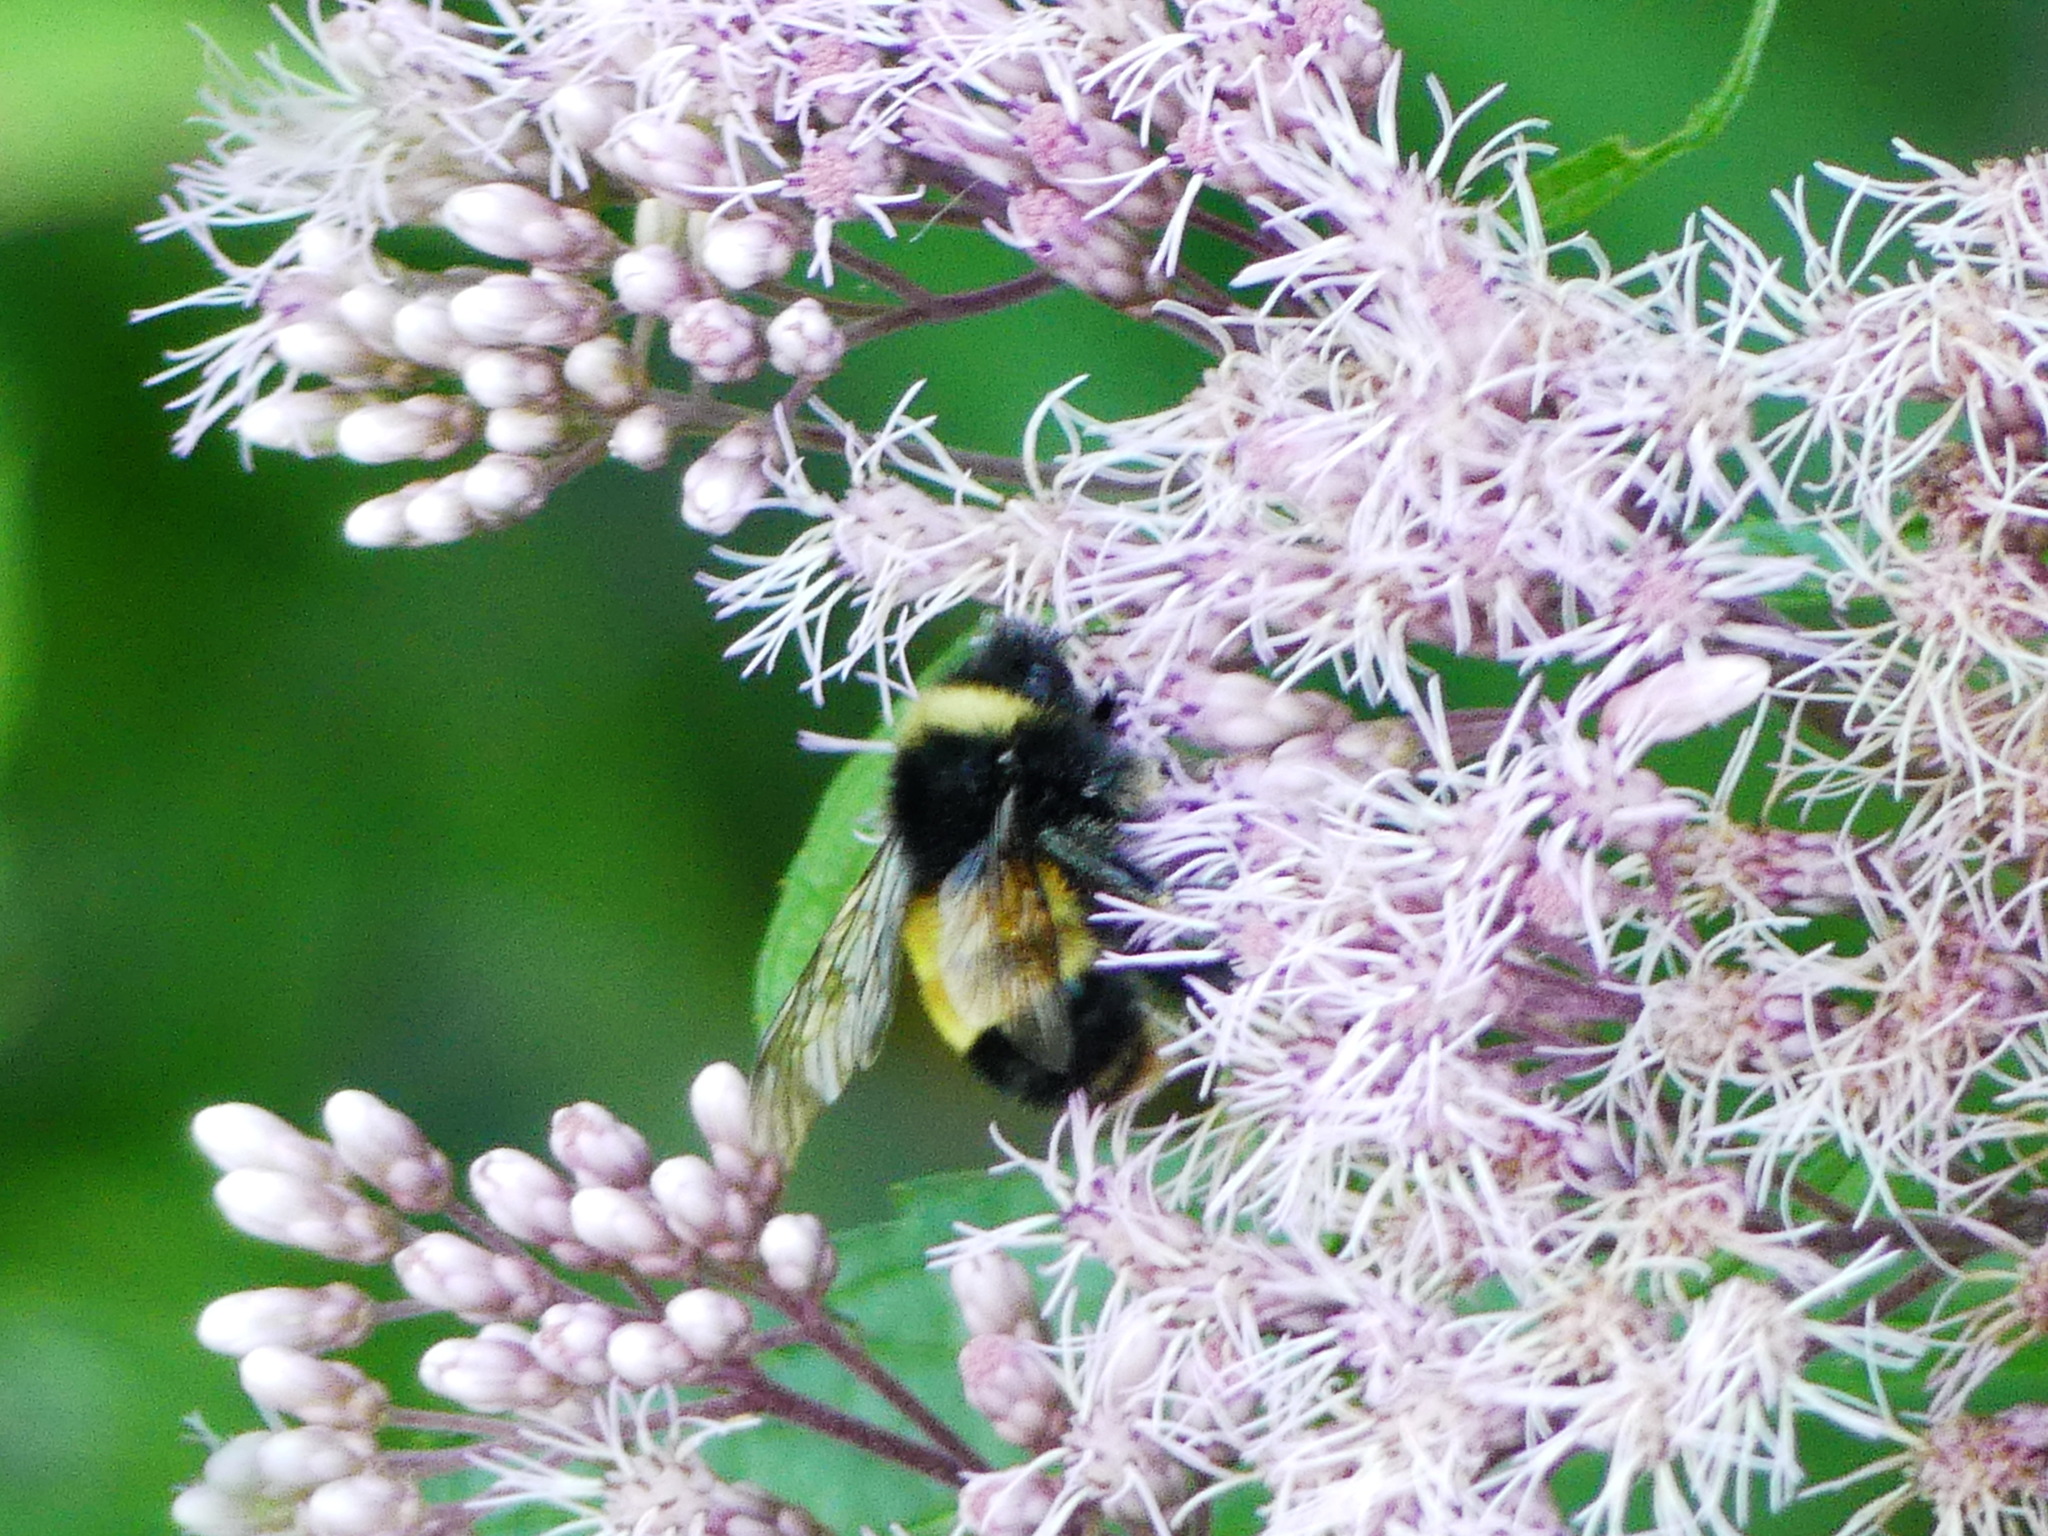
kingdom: Animalia
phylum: Arthropoda
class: Insecta
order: Hymenoptera
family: Apidae
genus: Bombus
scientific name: Bombus terricola
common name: Yellow-banded bumble bee
